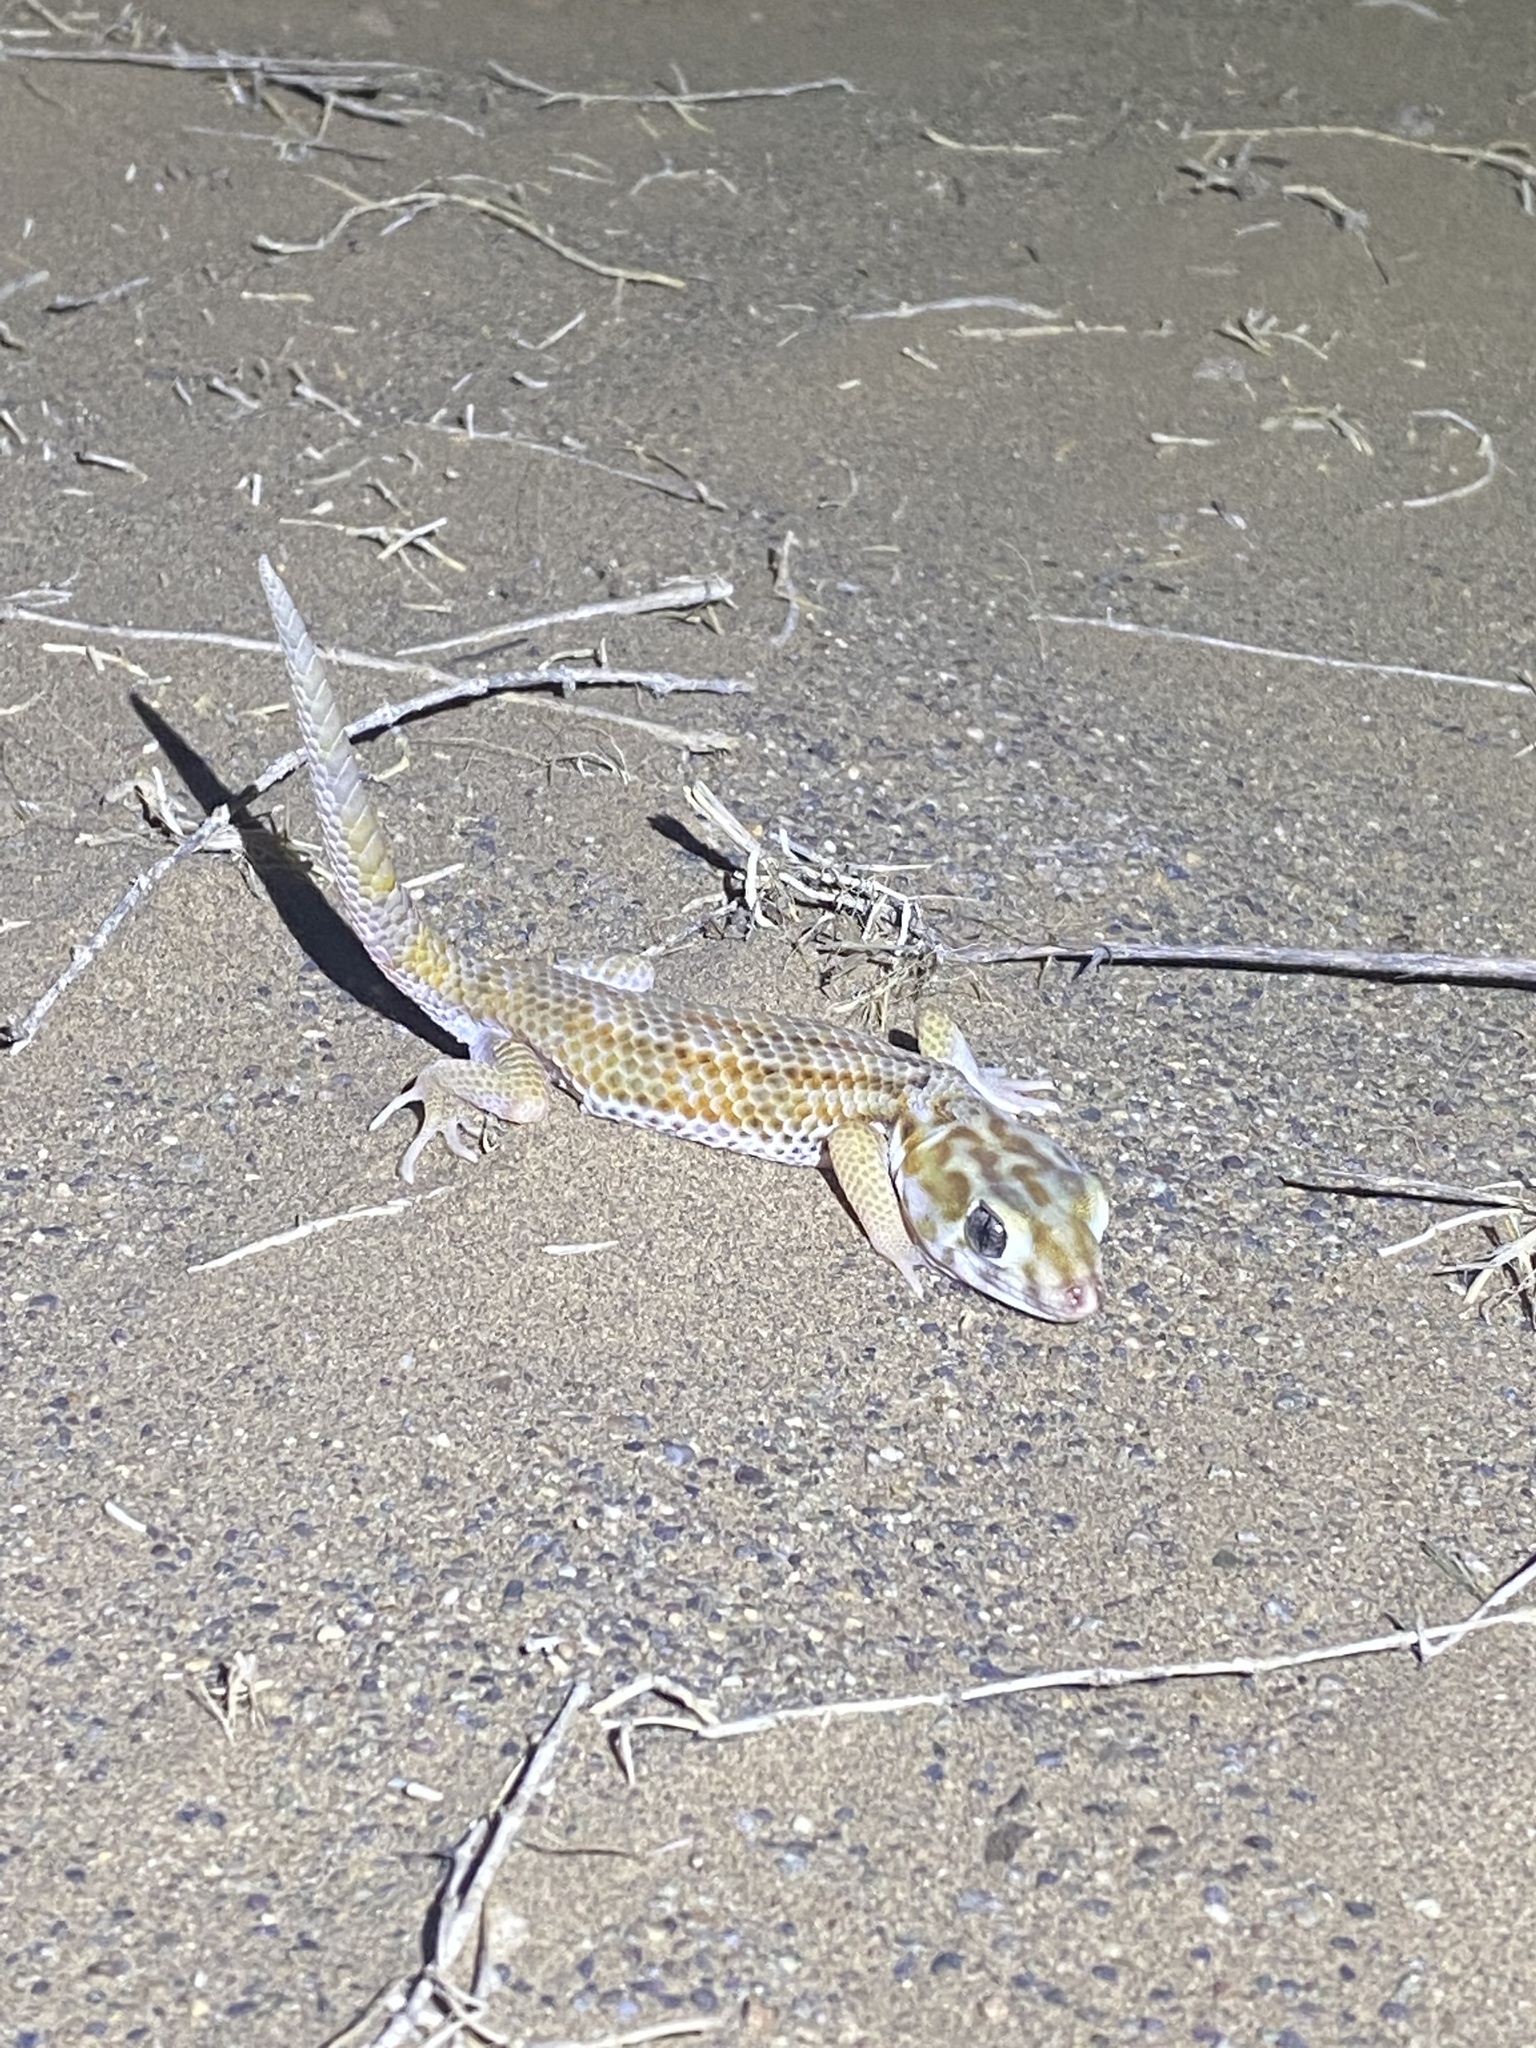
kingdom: Animalia
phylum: Chordata
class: Squamata
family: Sphaerodactylidae
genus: Teratoscincus
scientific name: Teratoscincus keyserlingii
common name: Frog-eyed gecko
